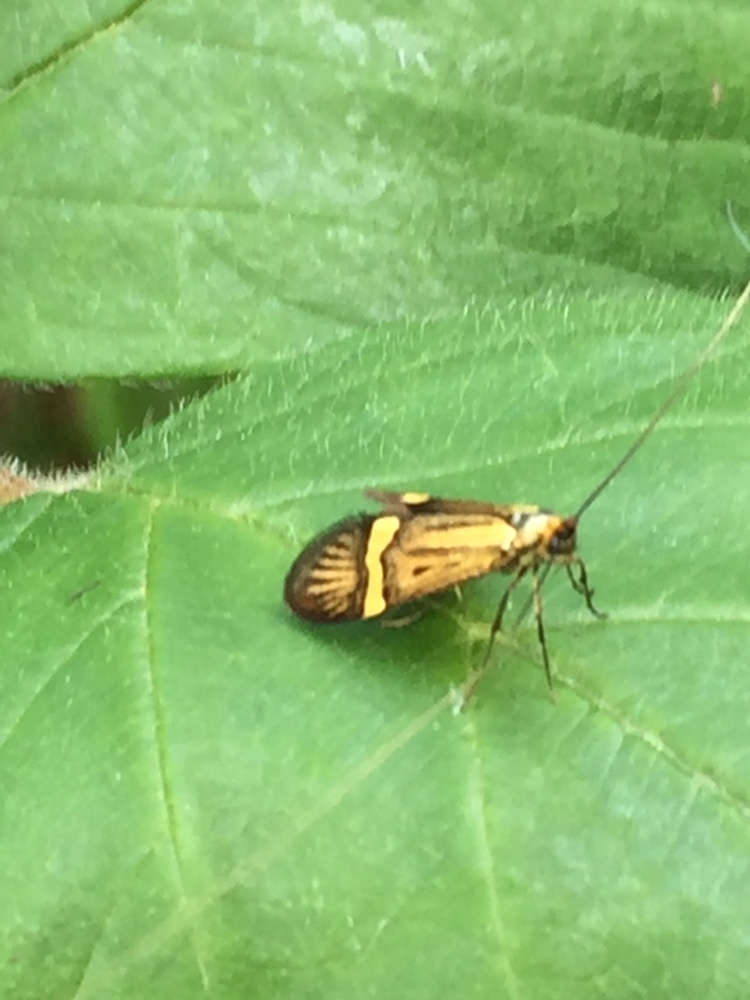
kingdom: Animalia
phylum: Arthropoda
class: Insecta
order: Lepidoptera
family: Adelidae
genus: Nemophora
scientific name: Nemophora degeerella
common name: Yellow-barred long-horn
